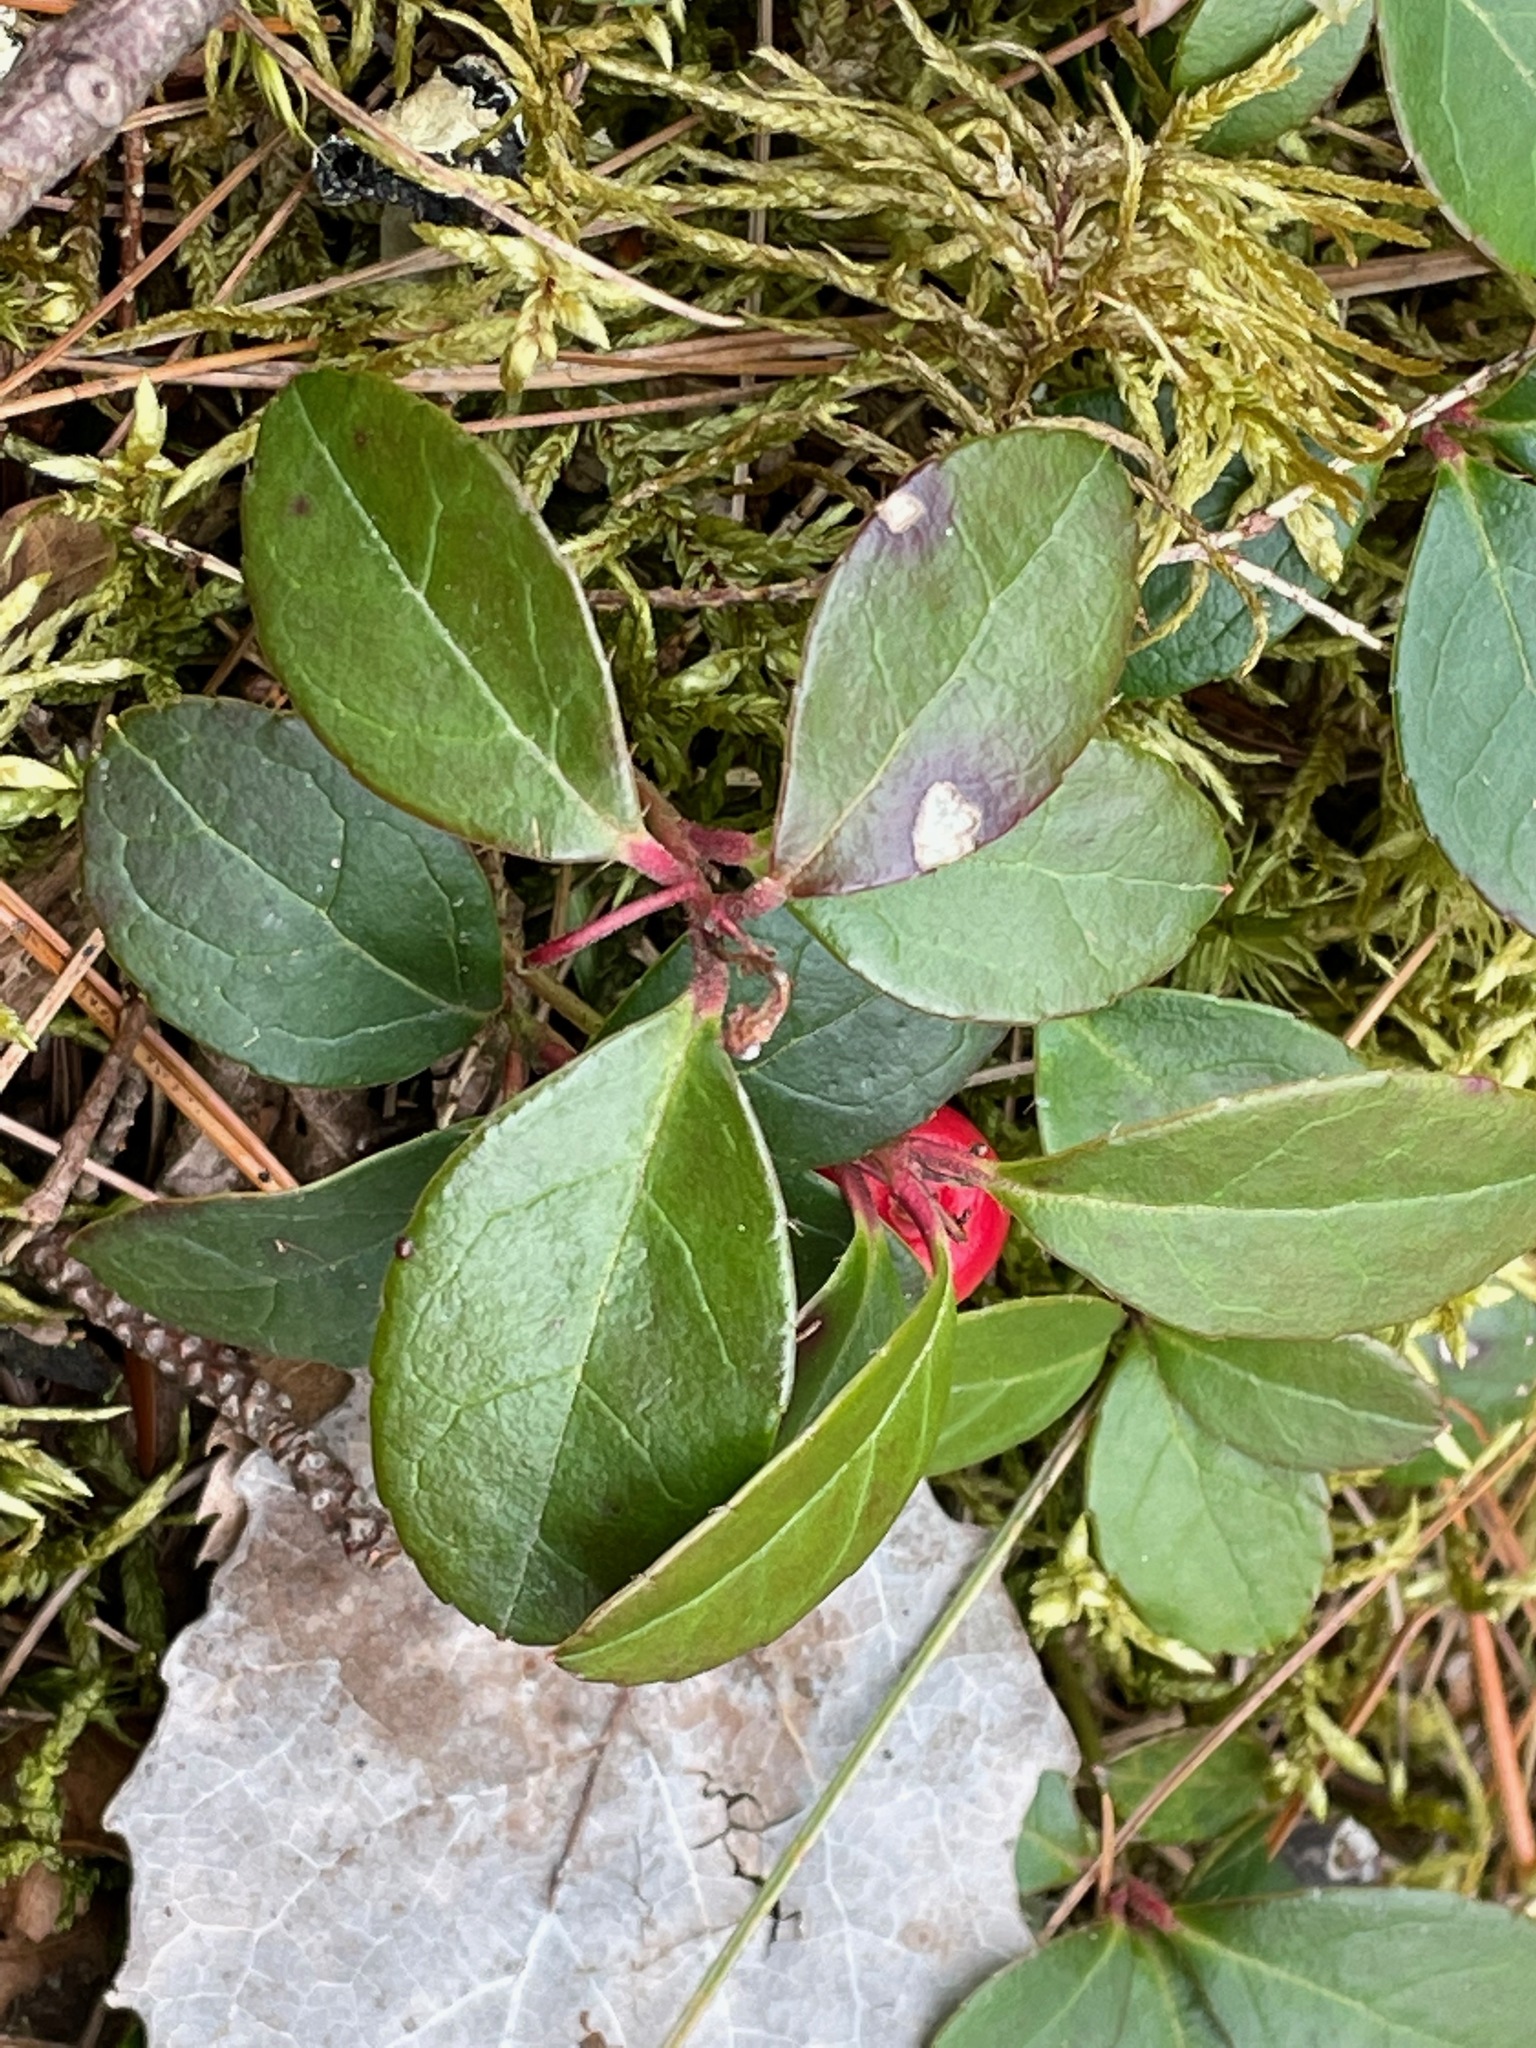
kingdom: Plantae
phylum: Tracheophyta
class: Magnoliopsida
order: Ericales
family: Ericaceae
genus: Gaultheria
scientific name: Gaultheria procumbens
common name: Checkerberry
